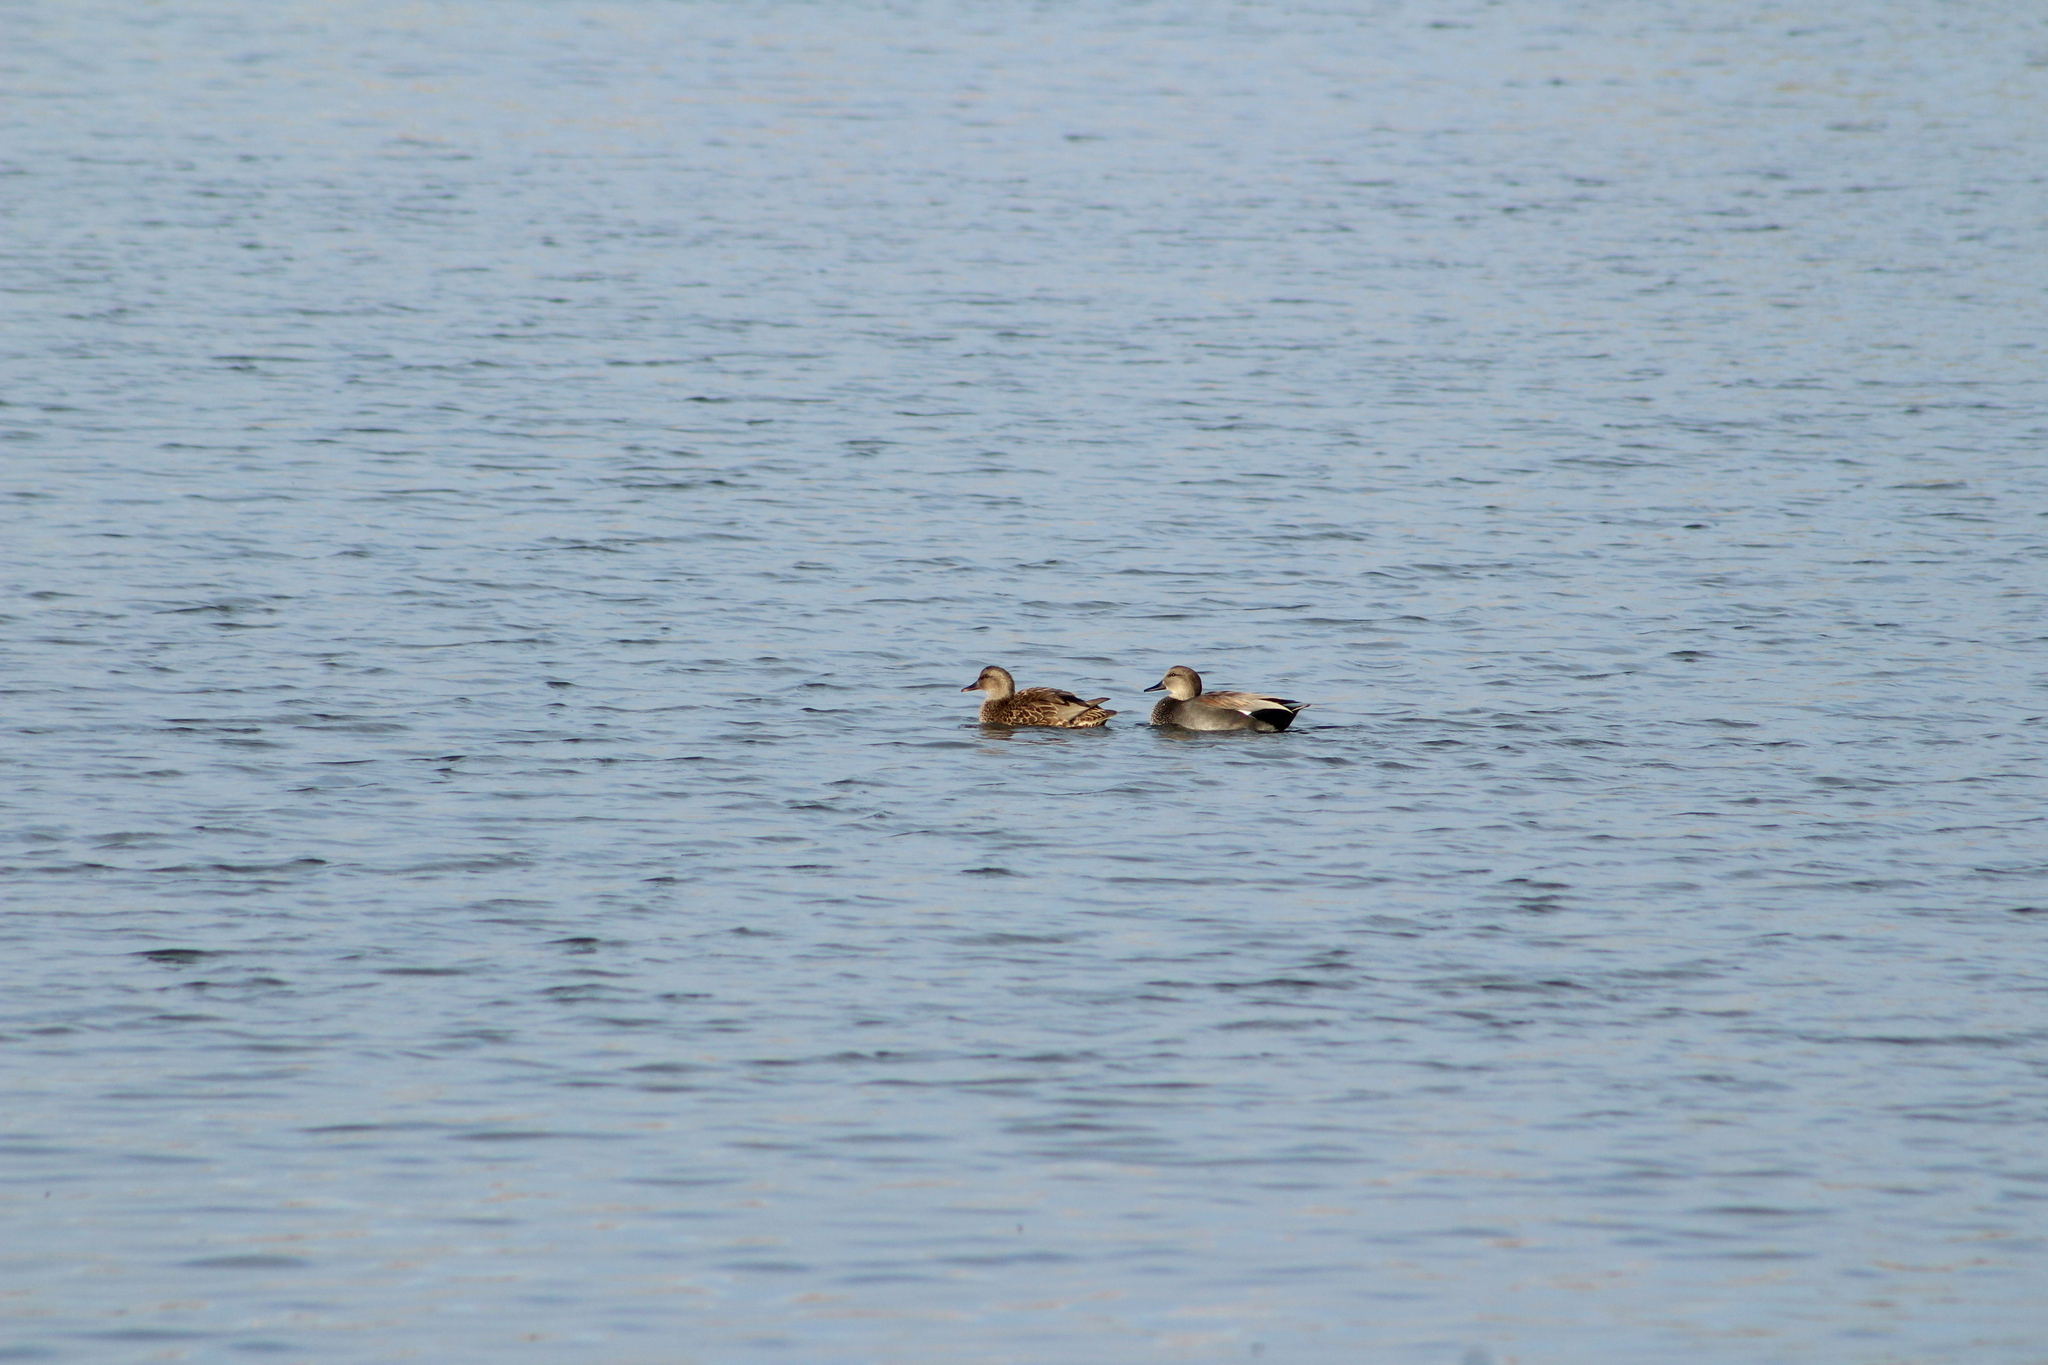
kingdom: Animalia
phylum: Chordata
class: Aves
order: Anseriformes
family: Anatidae
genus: Mareca
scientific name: Mareca strepera
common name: Gadwall
